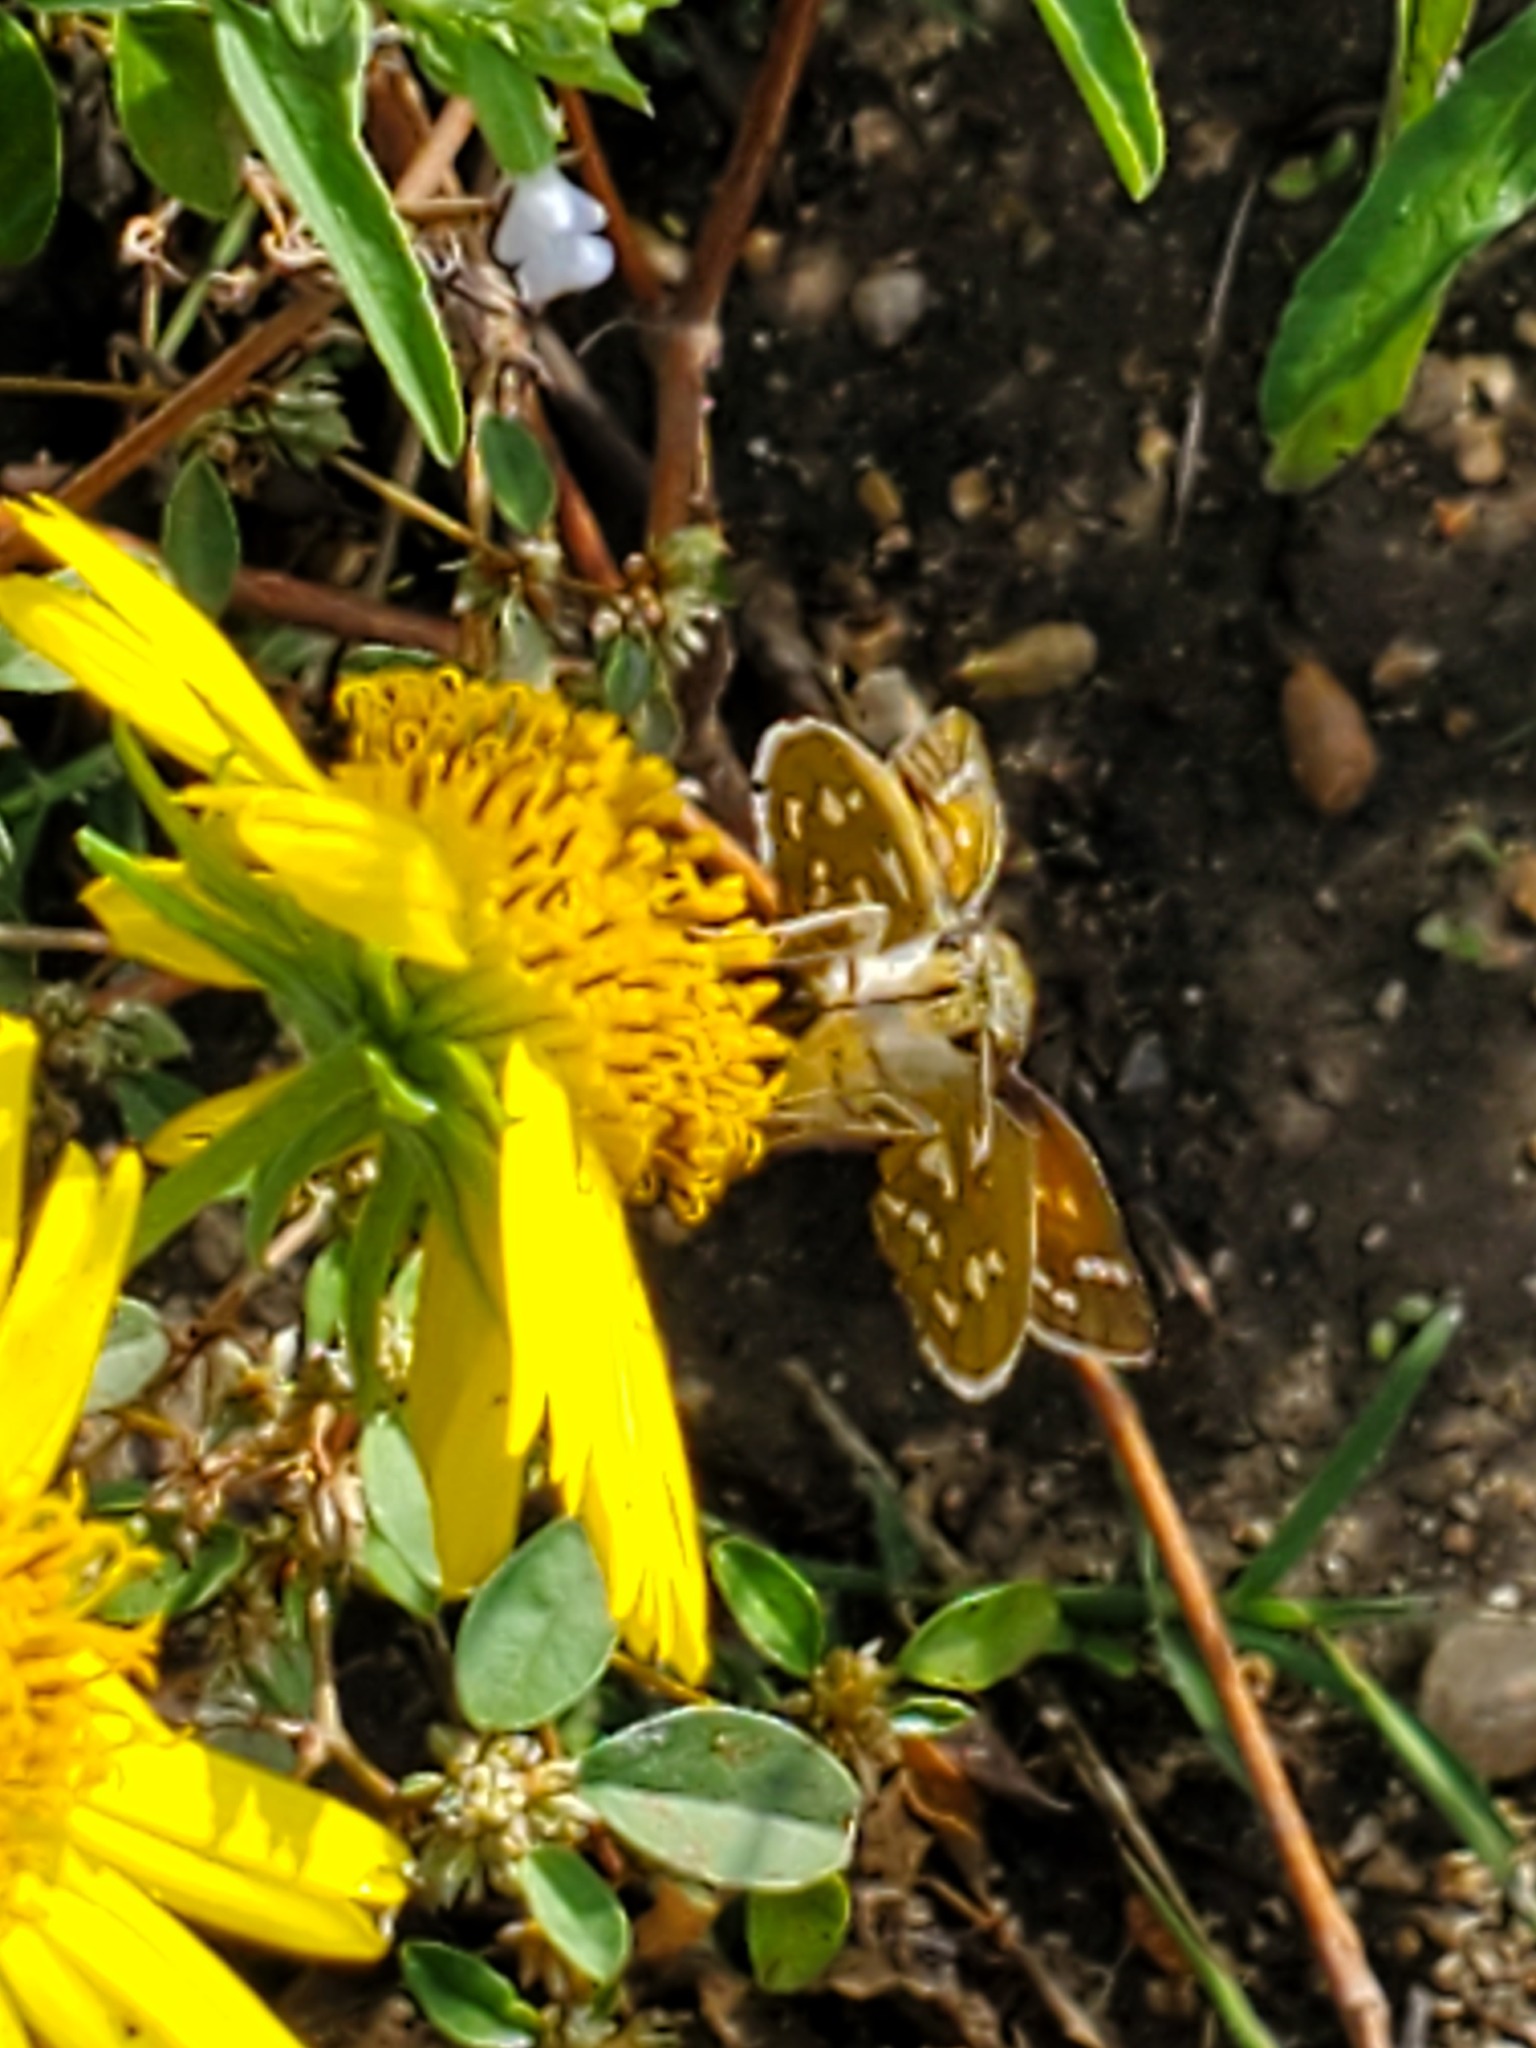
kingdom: Animalia
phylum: Arthropoda
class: Insecta
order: Lepidoptera
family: Hesperiidae
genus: Hesperia
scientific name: Hesperia viridis
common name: Green skipper
